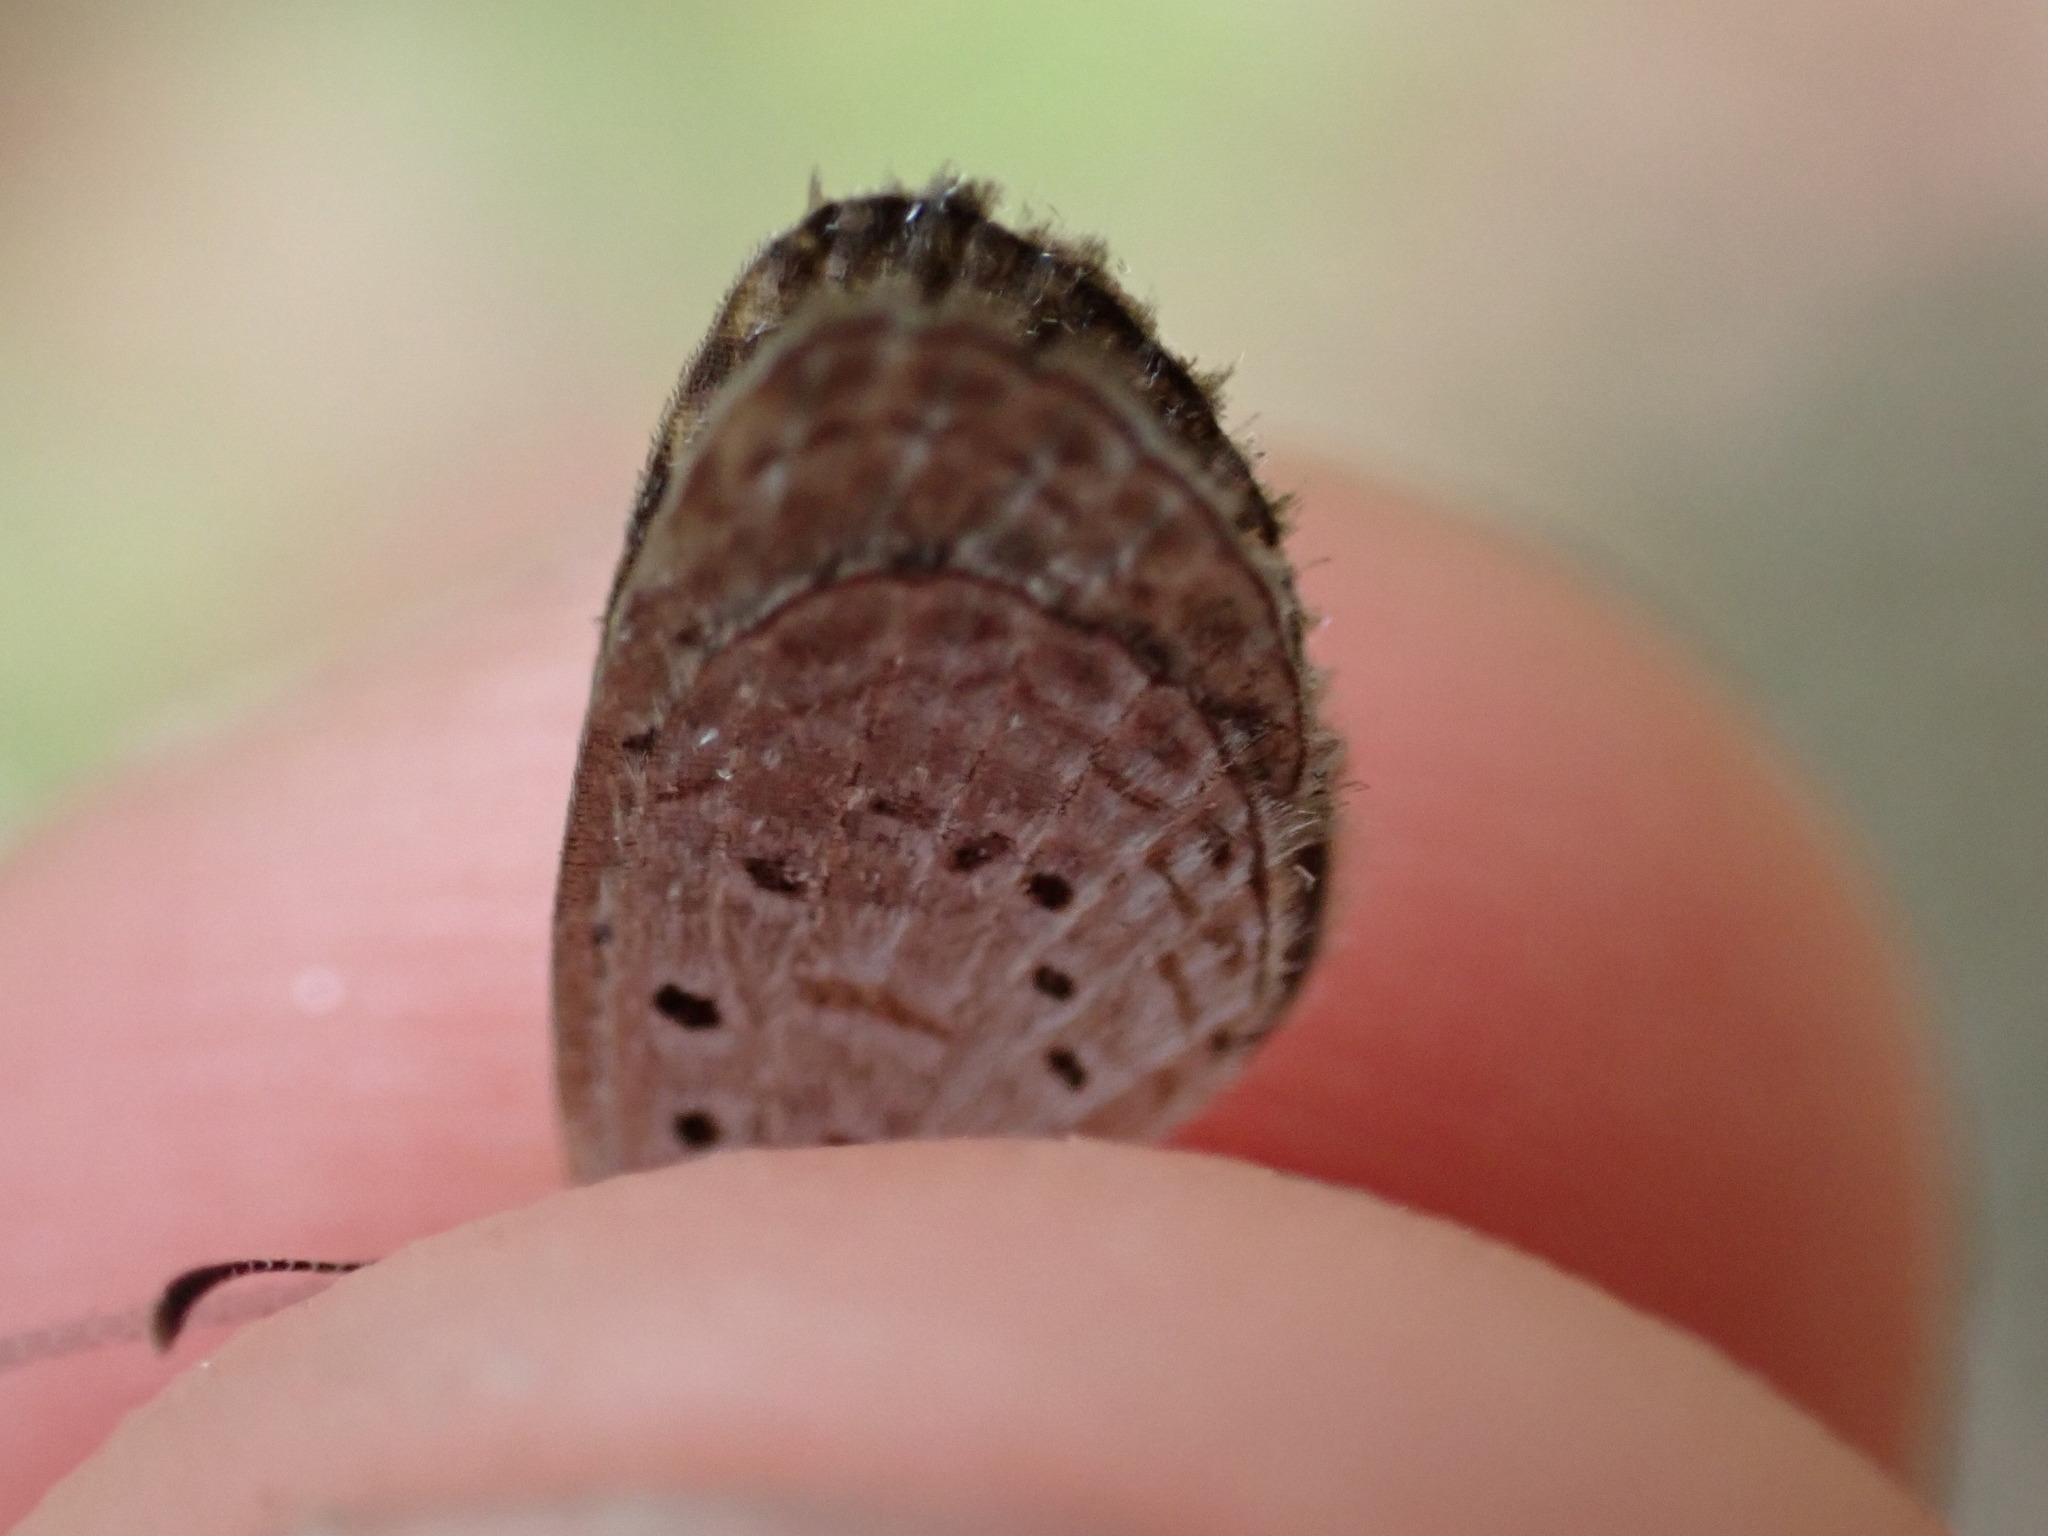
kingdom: Animalia
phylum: Arthropoda
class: Insecta
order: Lepidoptera
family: Lycaenidae
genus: Zizula
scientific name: Zizula hylax
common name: Gaika blue
